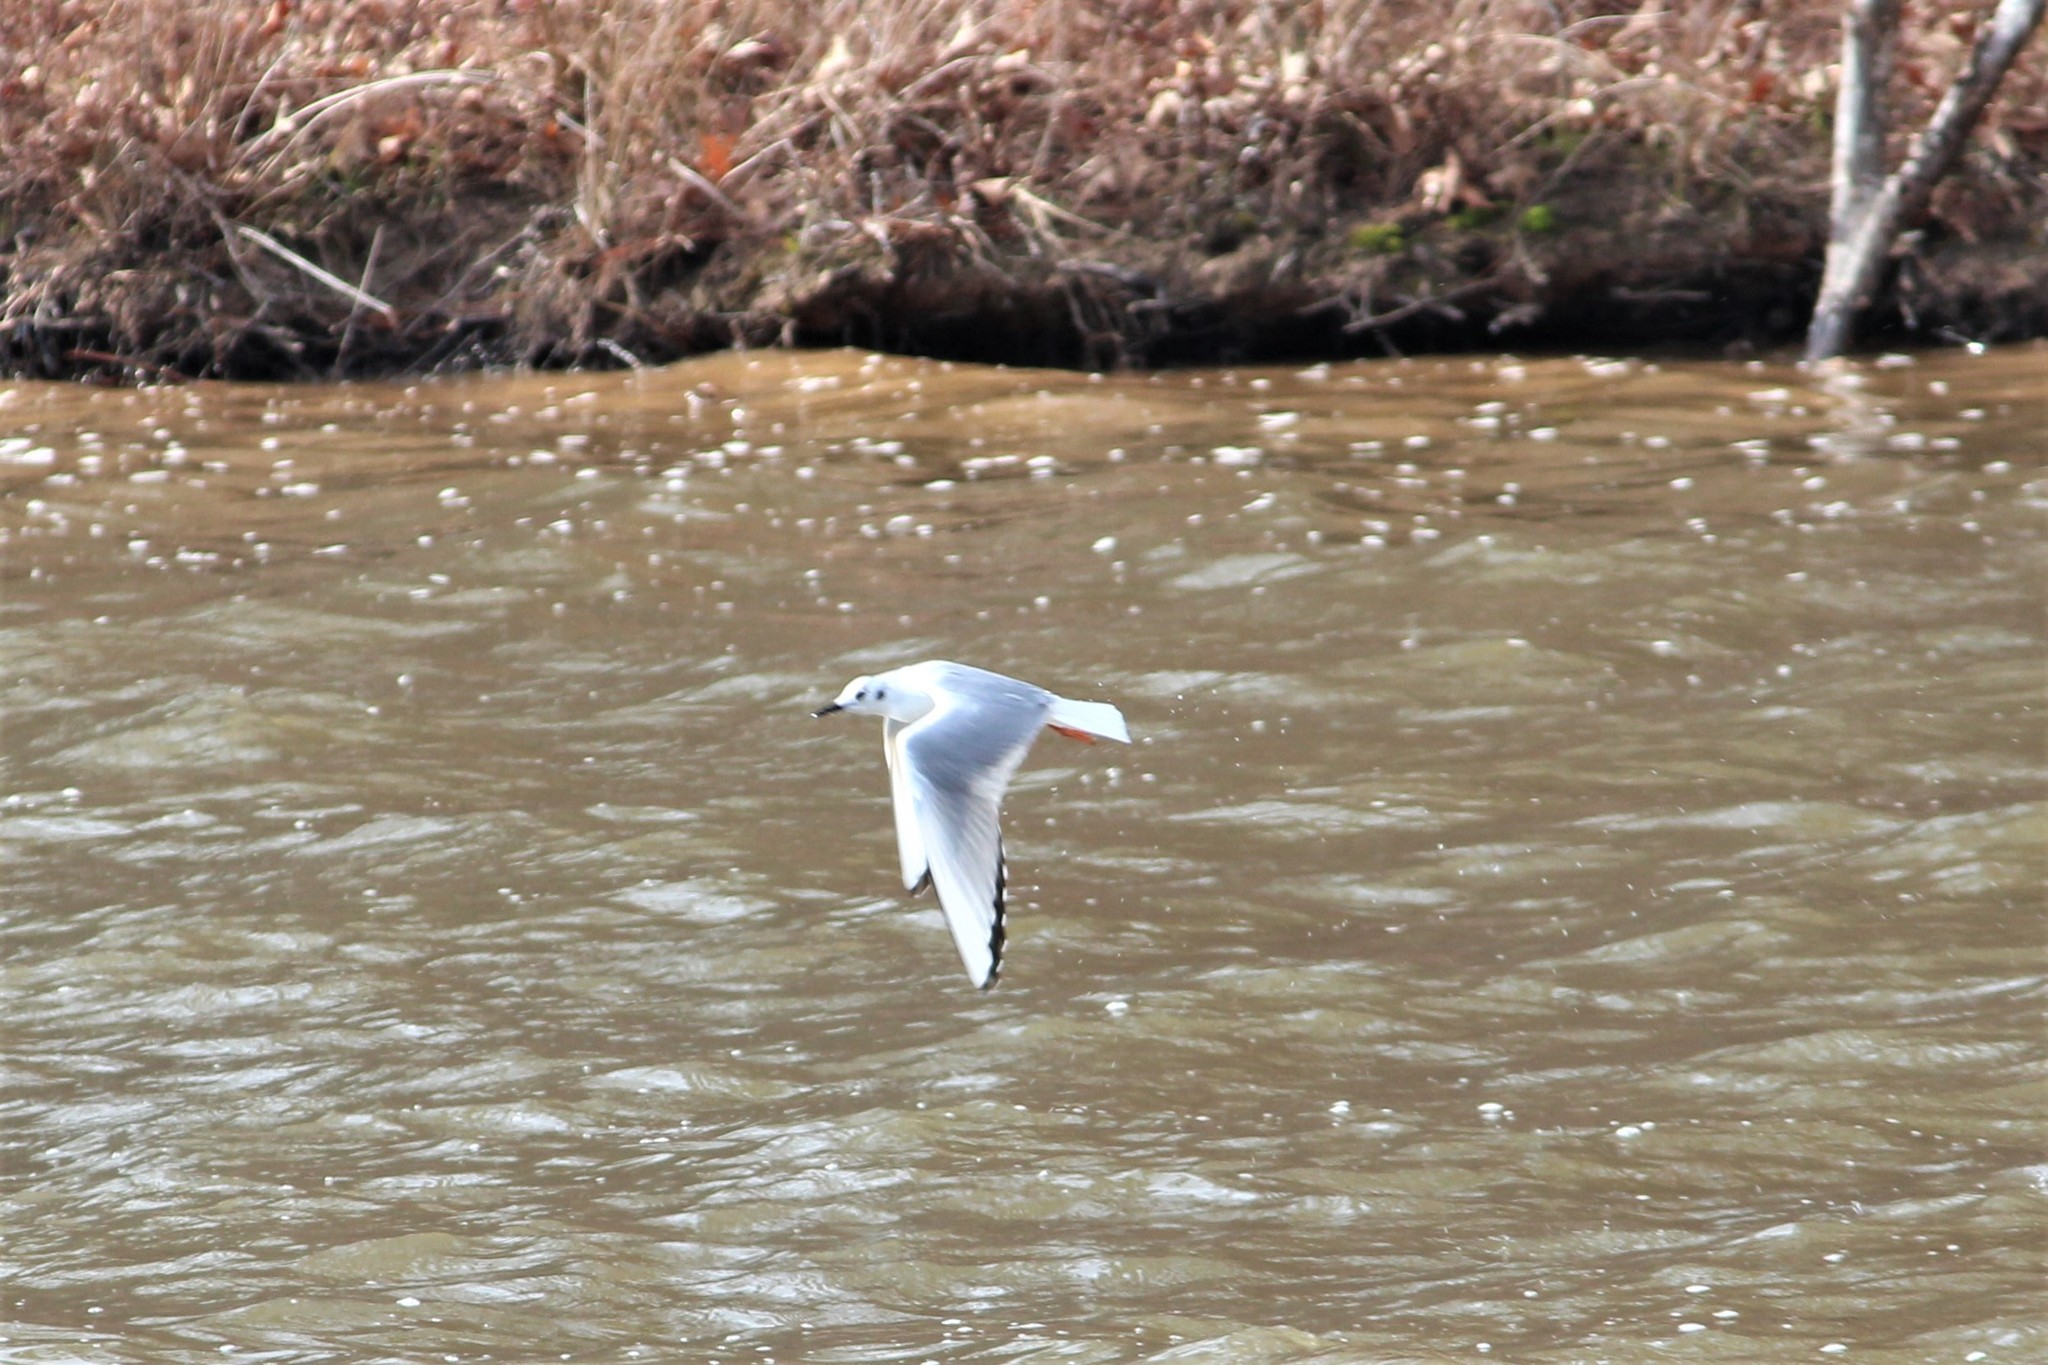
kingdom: Animalia
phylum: Chordata
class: Aves
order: Charadriiformes
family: Laridae
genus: Chroicocephalus
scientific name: Chroicocephalus philadelphia
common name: Bonaparte's gull
